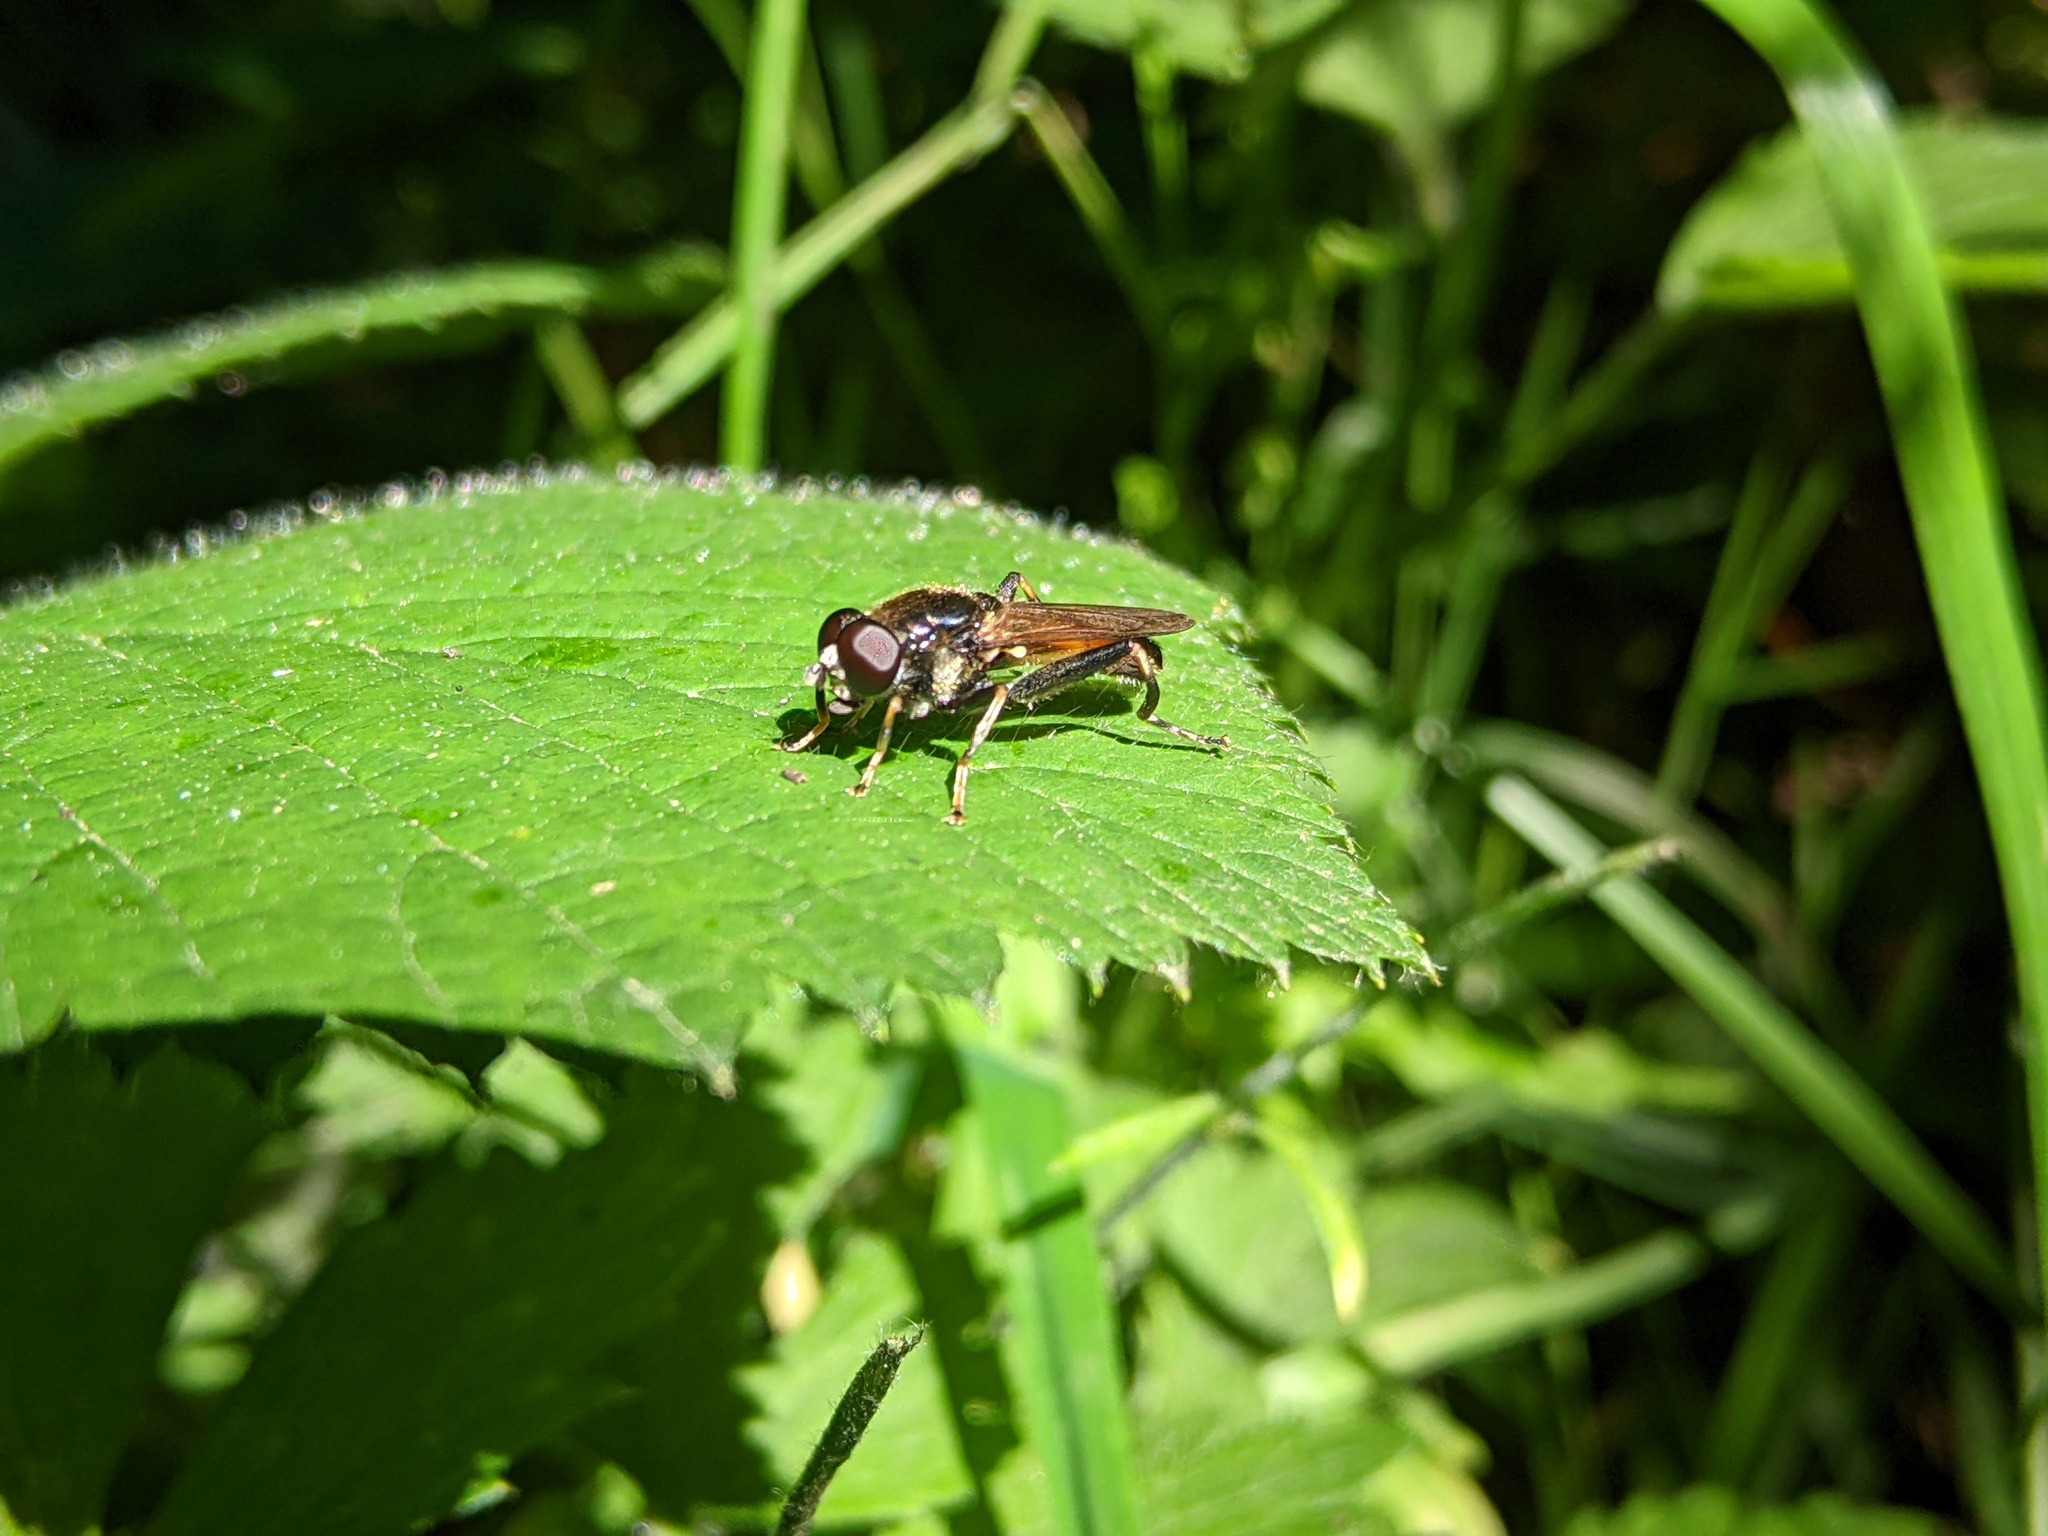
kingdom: Animalia
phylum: Arthropoda
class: Insecta
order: Diptera
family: Syrphidae
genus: Xylota
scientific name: Xylota segnis
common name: Brown-toed forest fly
